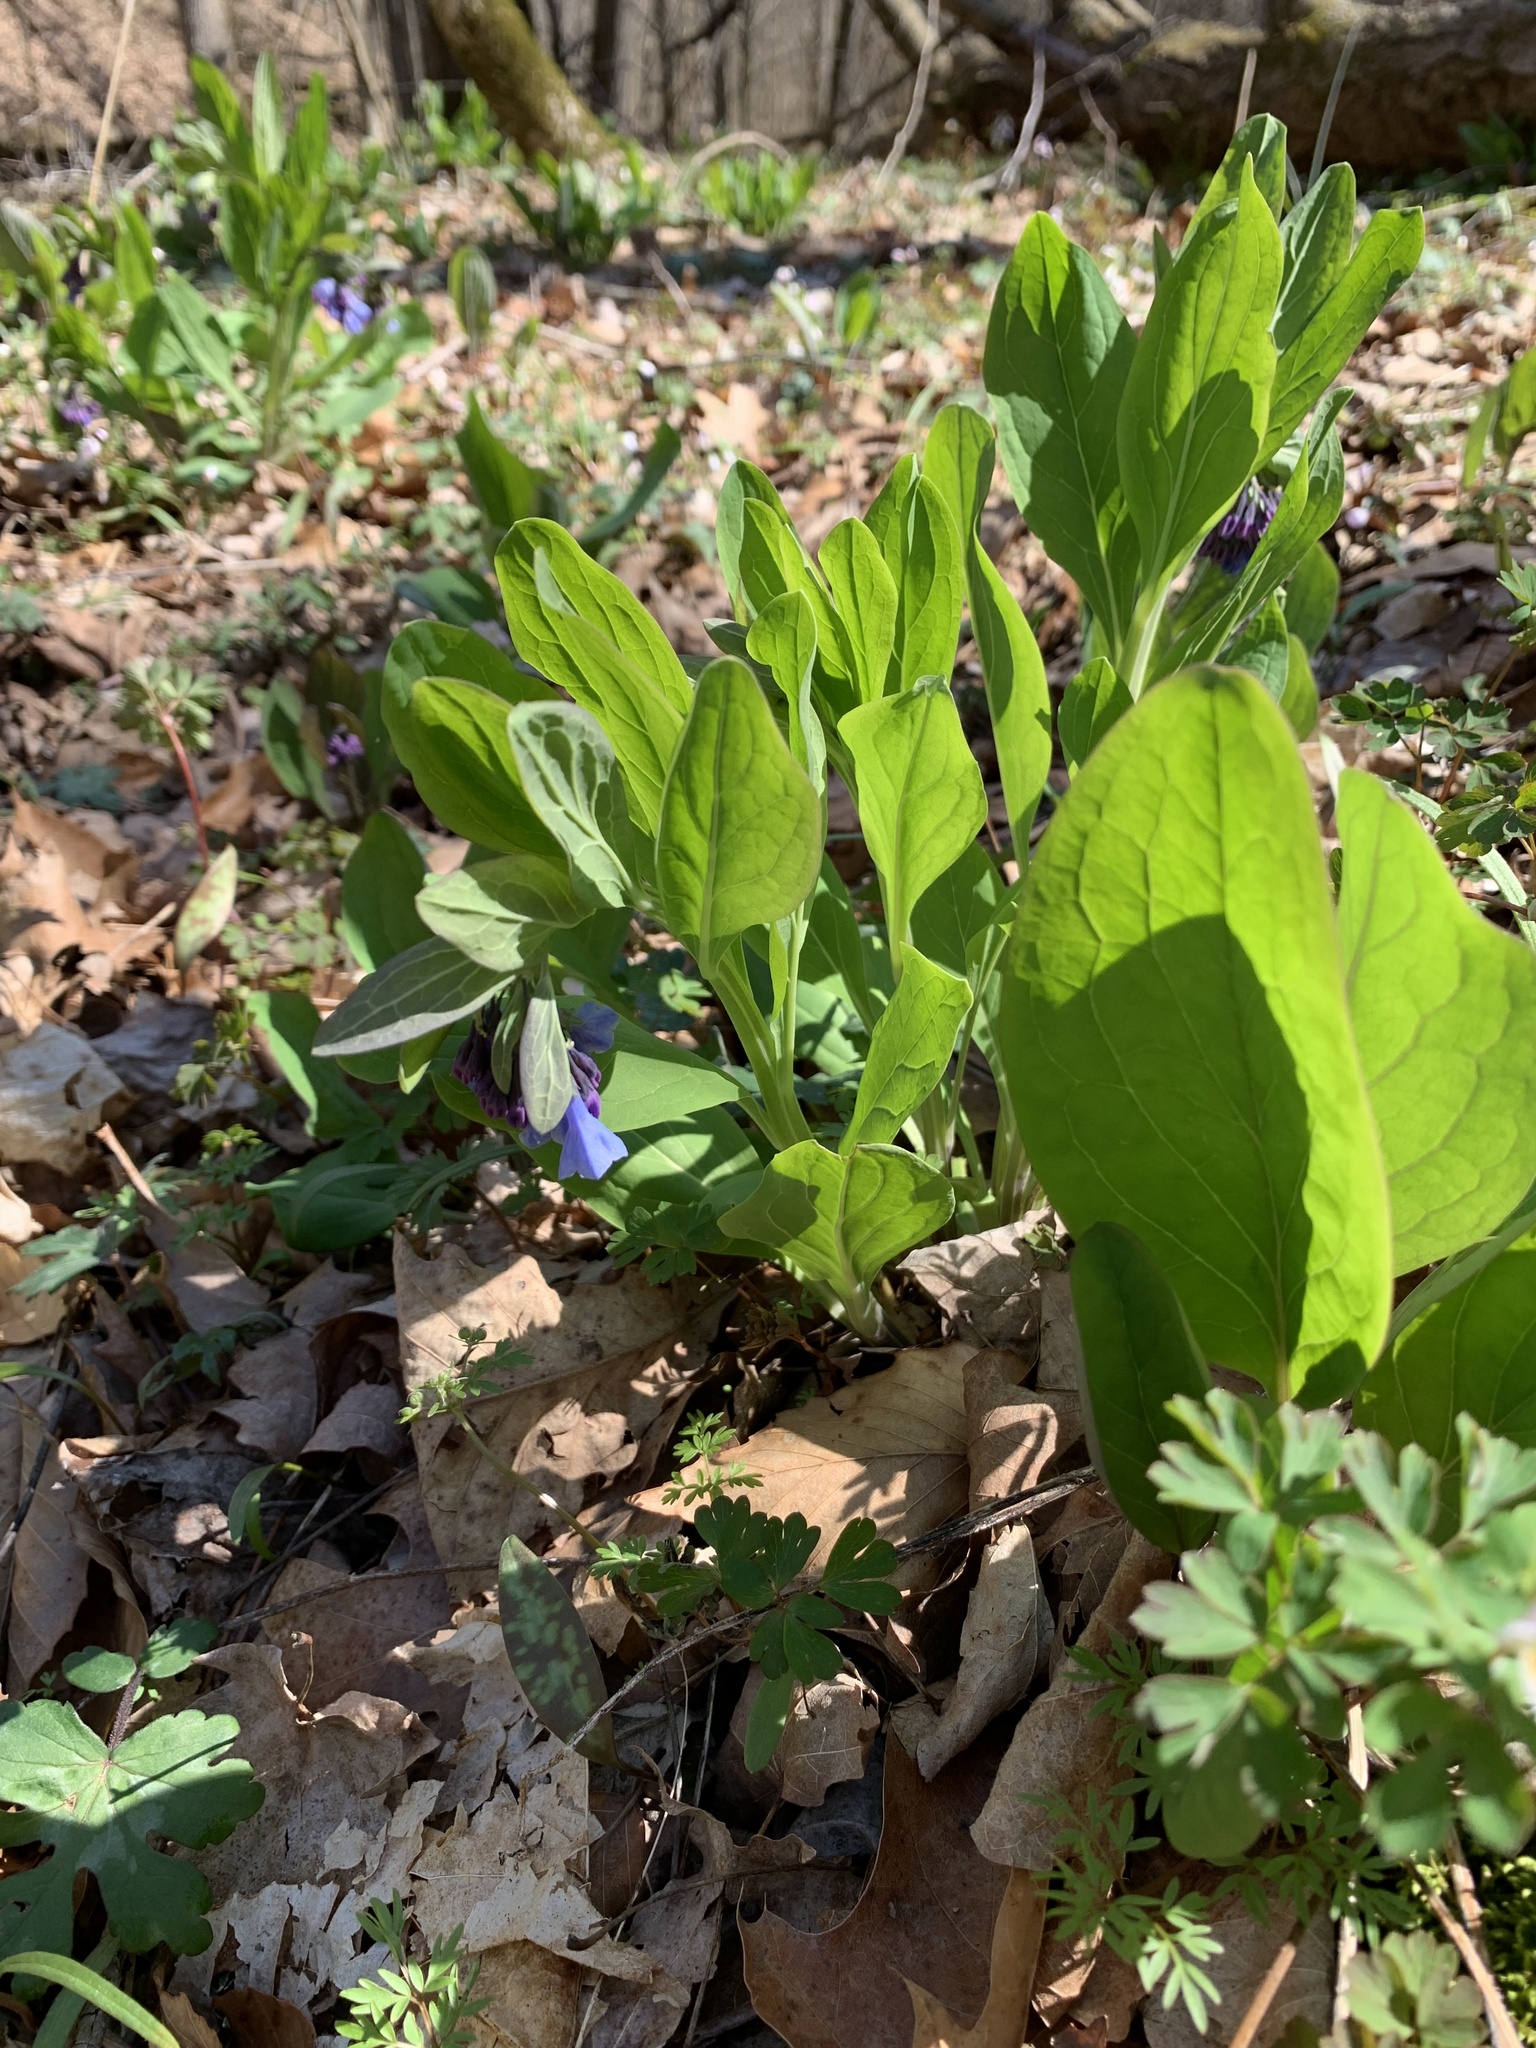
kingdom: Plantae
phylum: Tracheophyta
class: Magnoliopsida
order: Boraginales
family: Boraginaceae
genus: Mertensia
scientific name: Mertensia virginica
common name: Virginia bluebells
